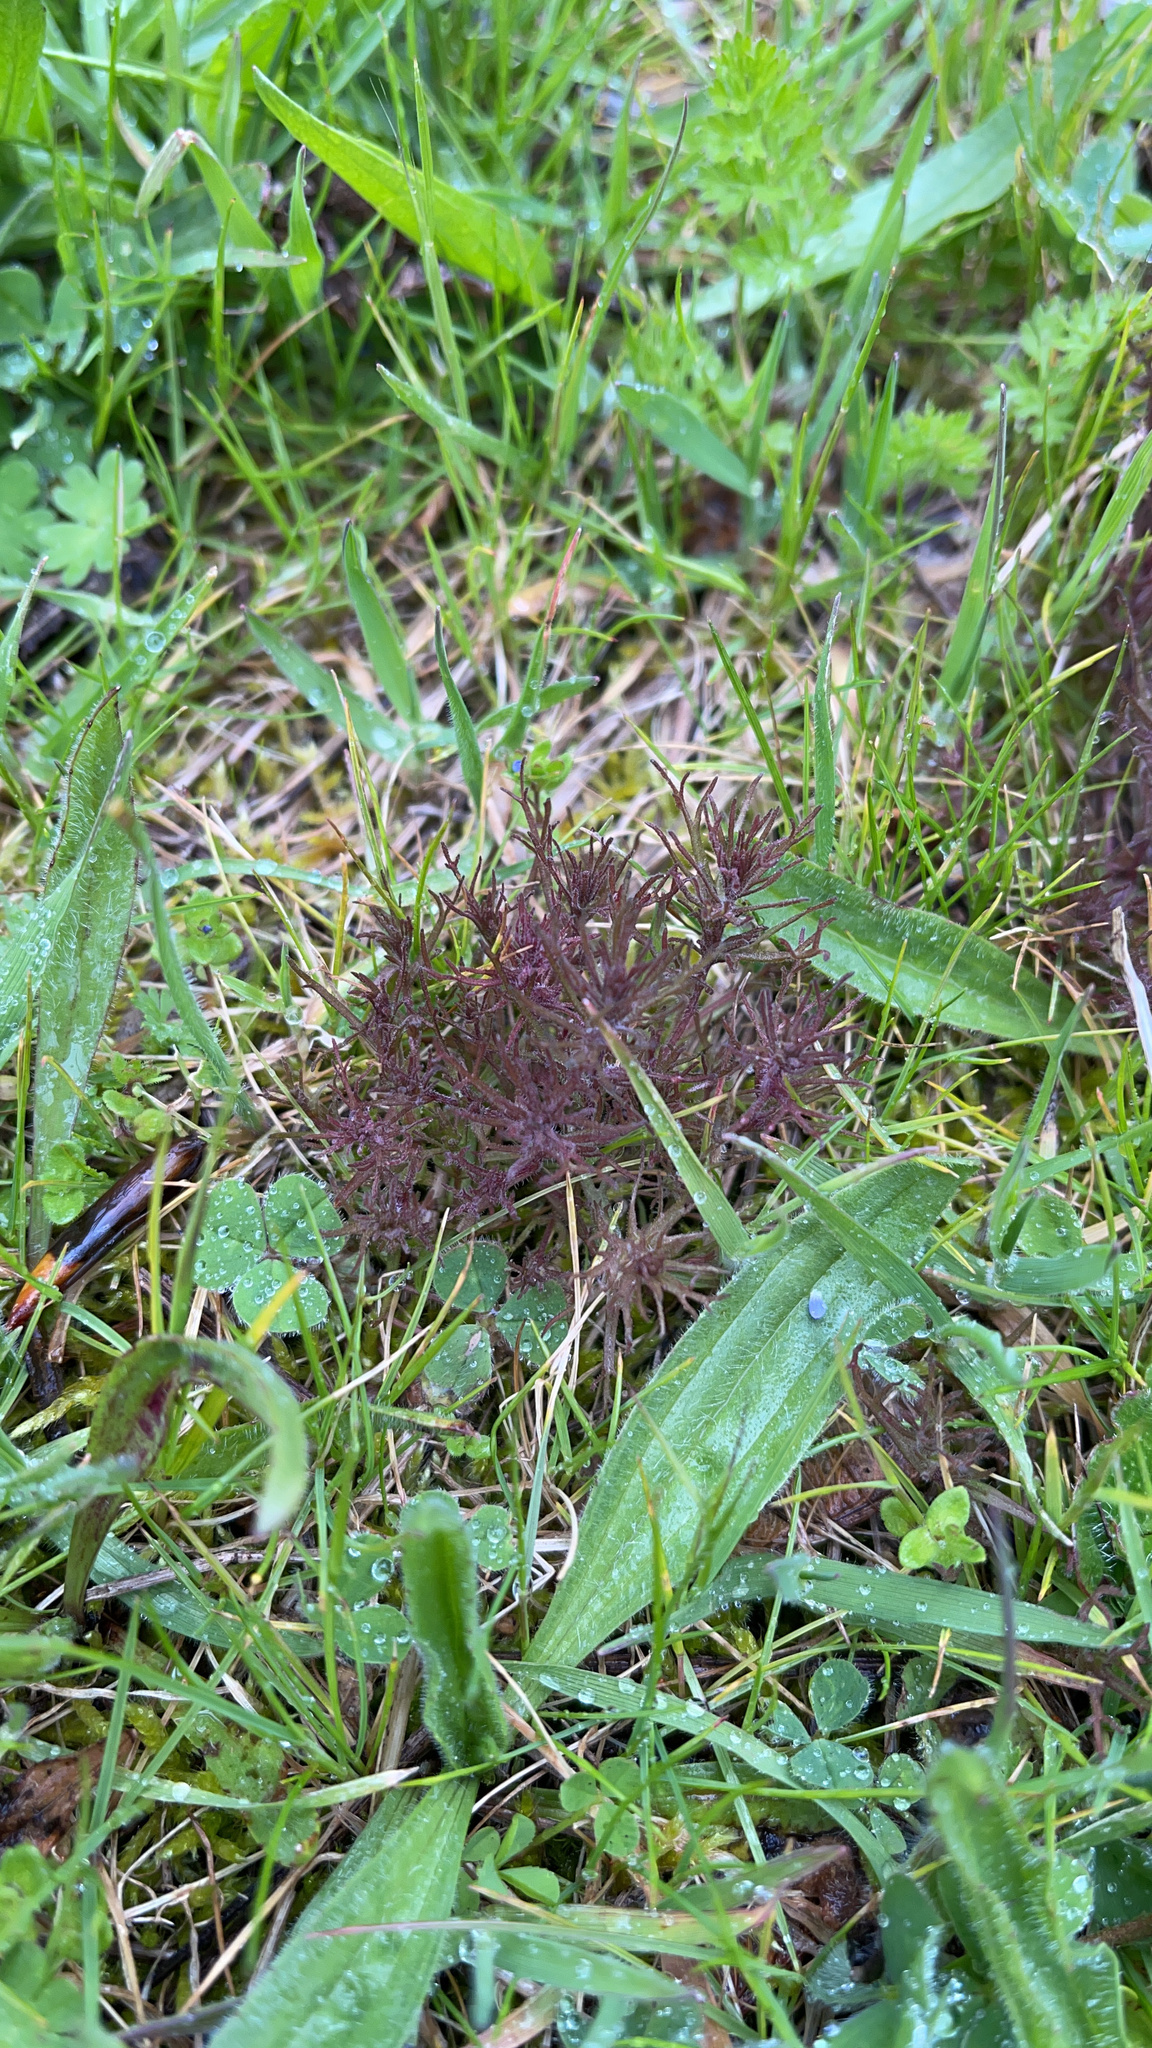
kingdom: Plantae
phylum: Tracheophyta
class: Magnoliopsida
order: Lamiales
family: Orobanchaceae
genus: Triphysaria
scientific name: Triphysaria pusilla
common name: Dwarf false owl-clover
